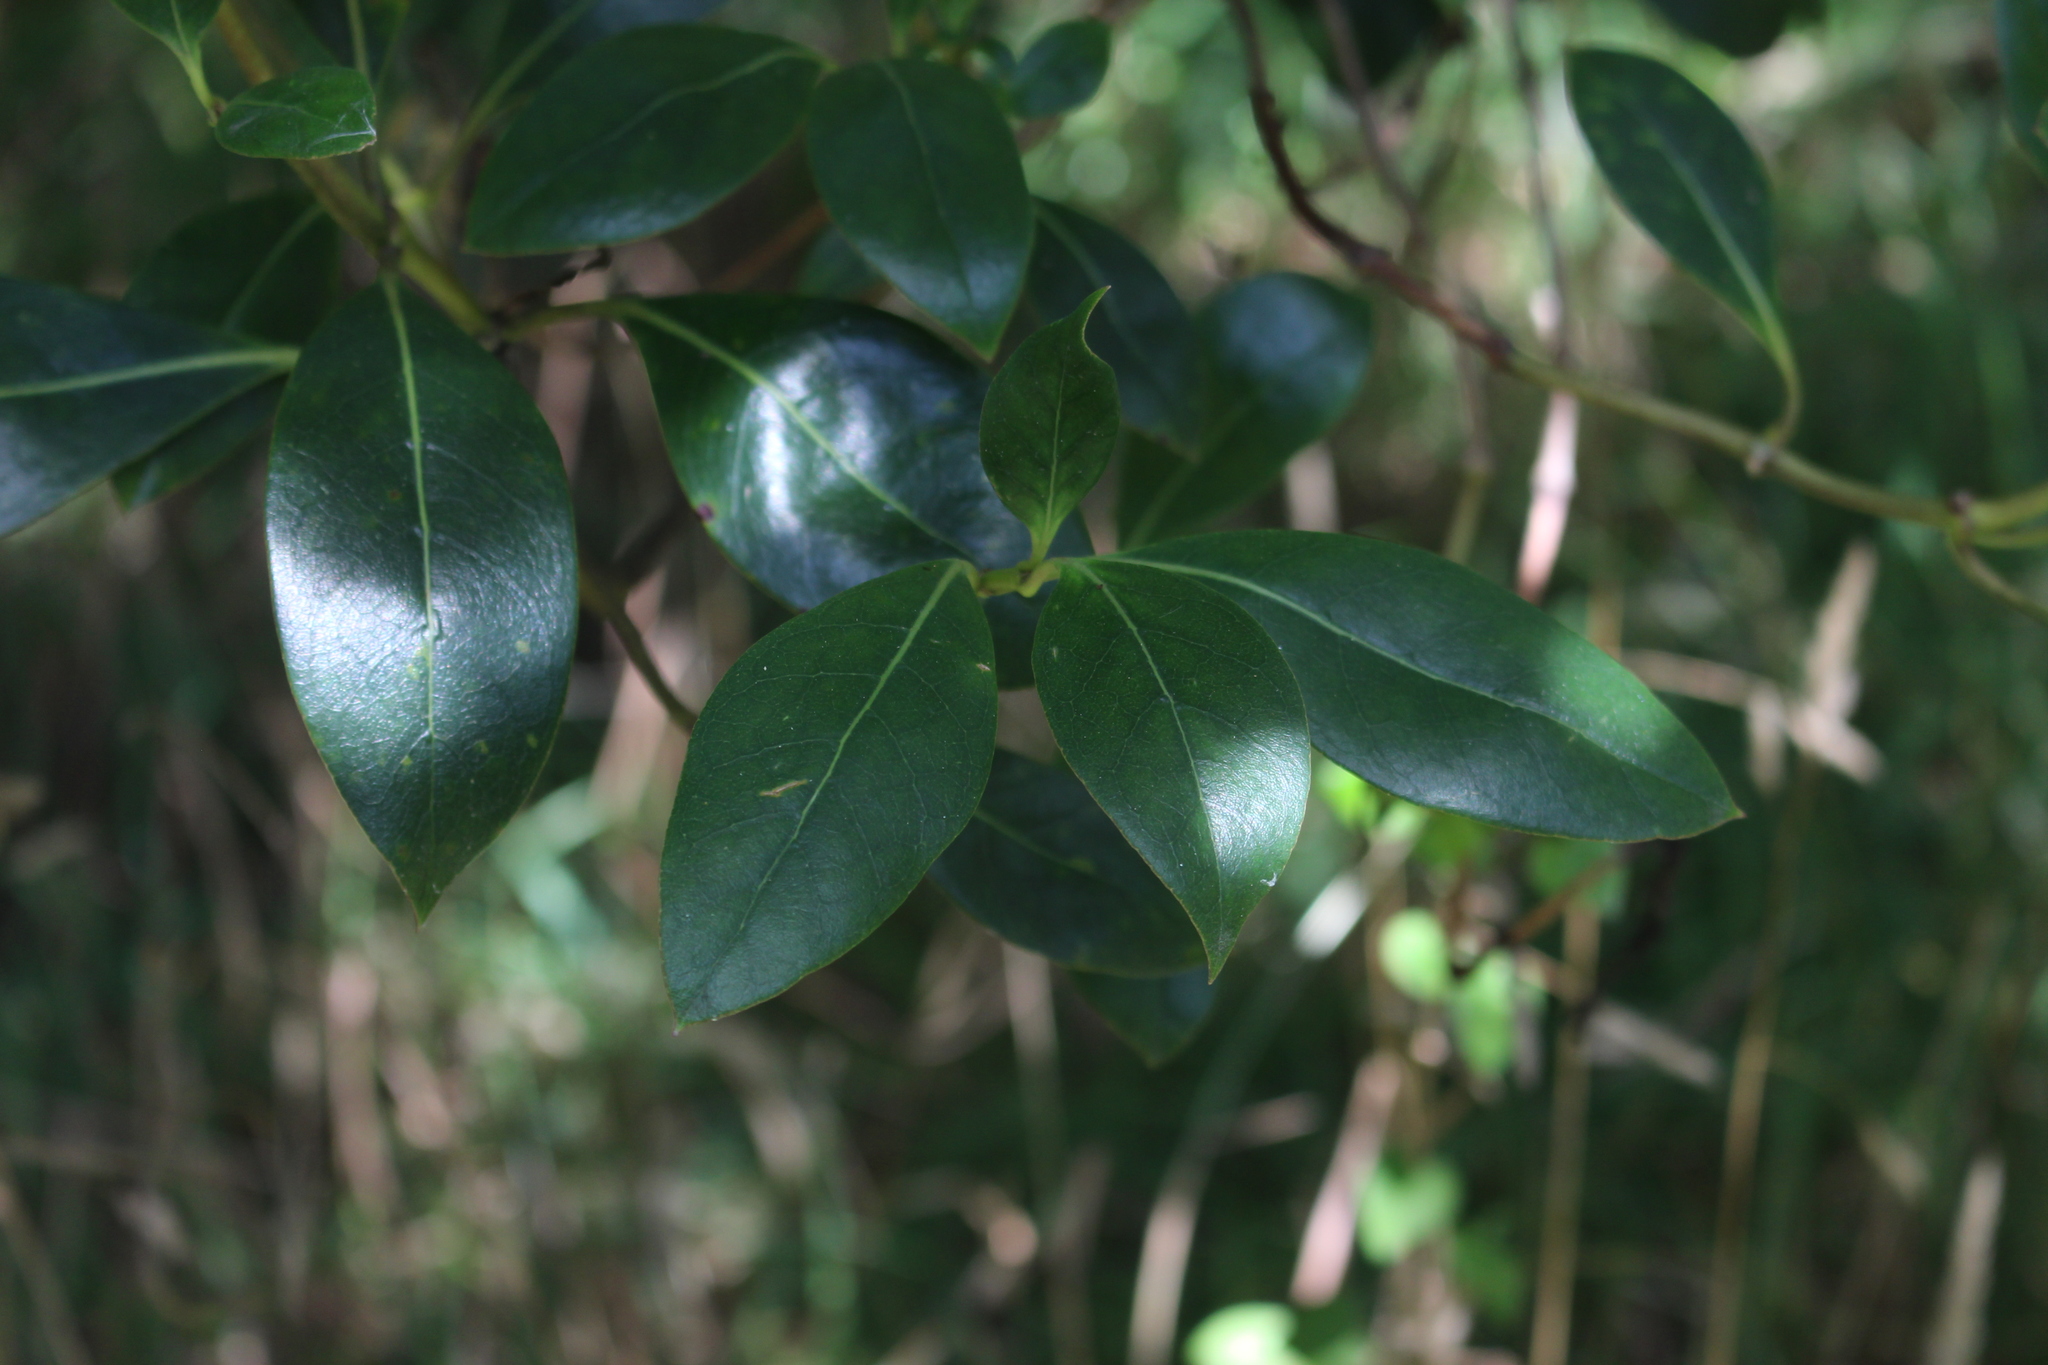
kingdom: Plantae
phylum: Tracheophyta
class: Magnoliopsida
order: Gentianales
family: Rubiaceae
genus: Coprosma
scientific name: Coprosma lucida
